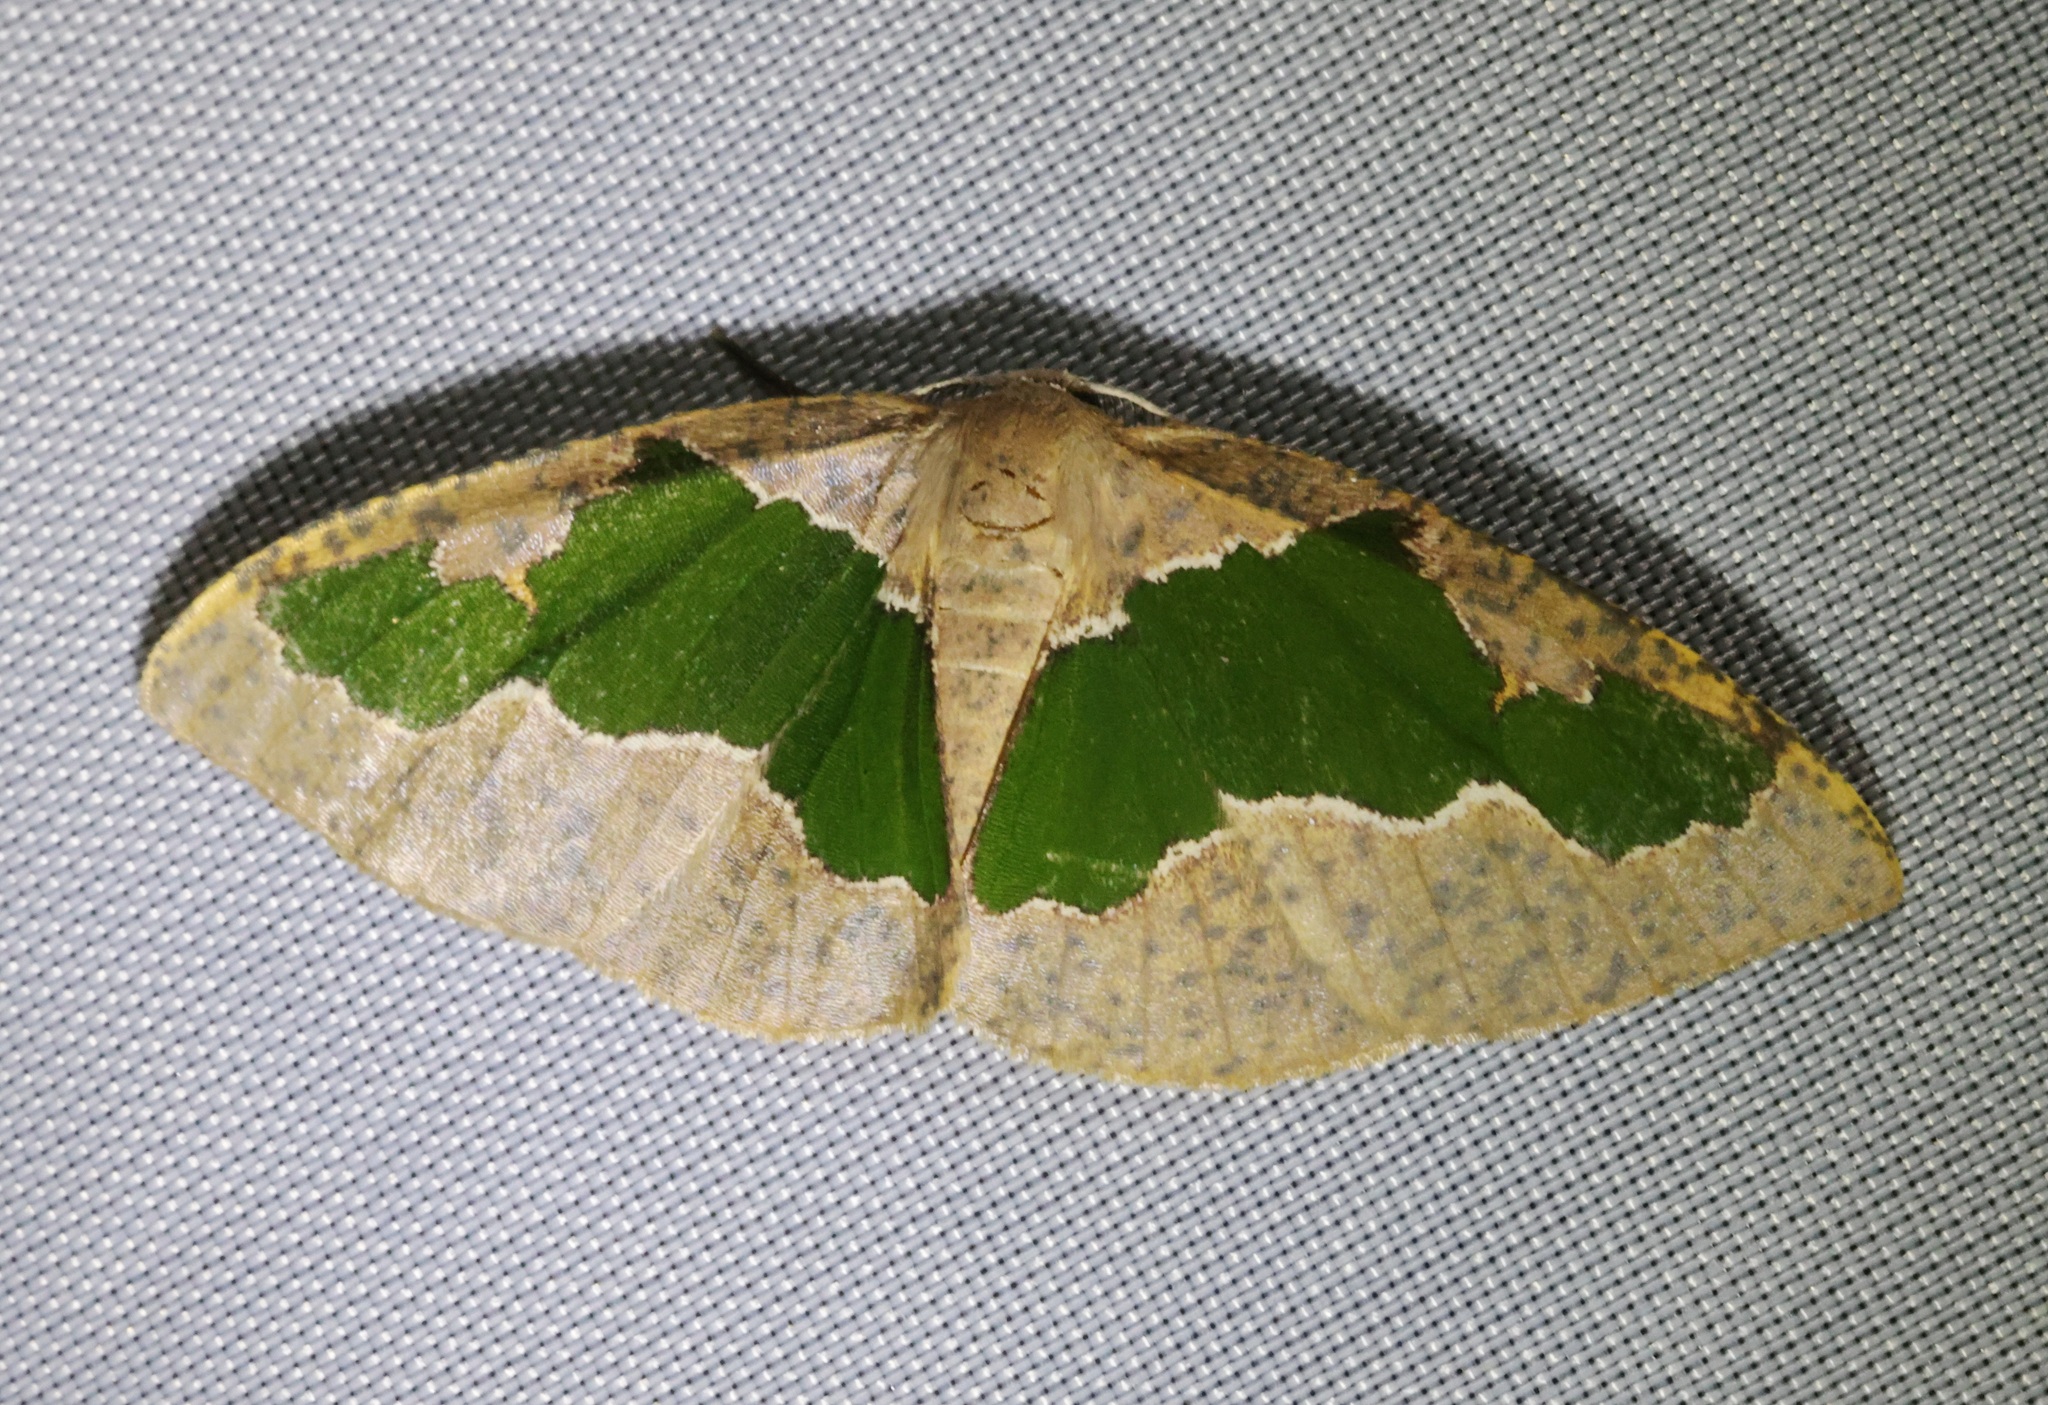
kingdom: Animalia
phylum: Arthropoda
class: Insecta
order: Lepidoptera
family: Geometridae
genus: Celenna
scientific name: Celenna festivaria
